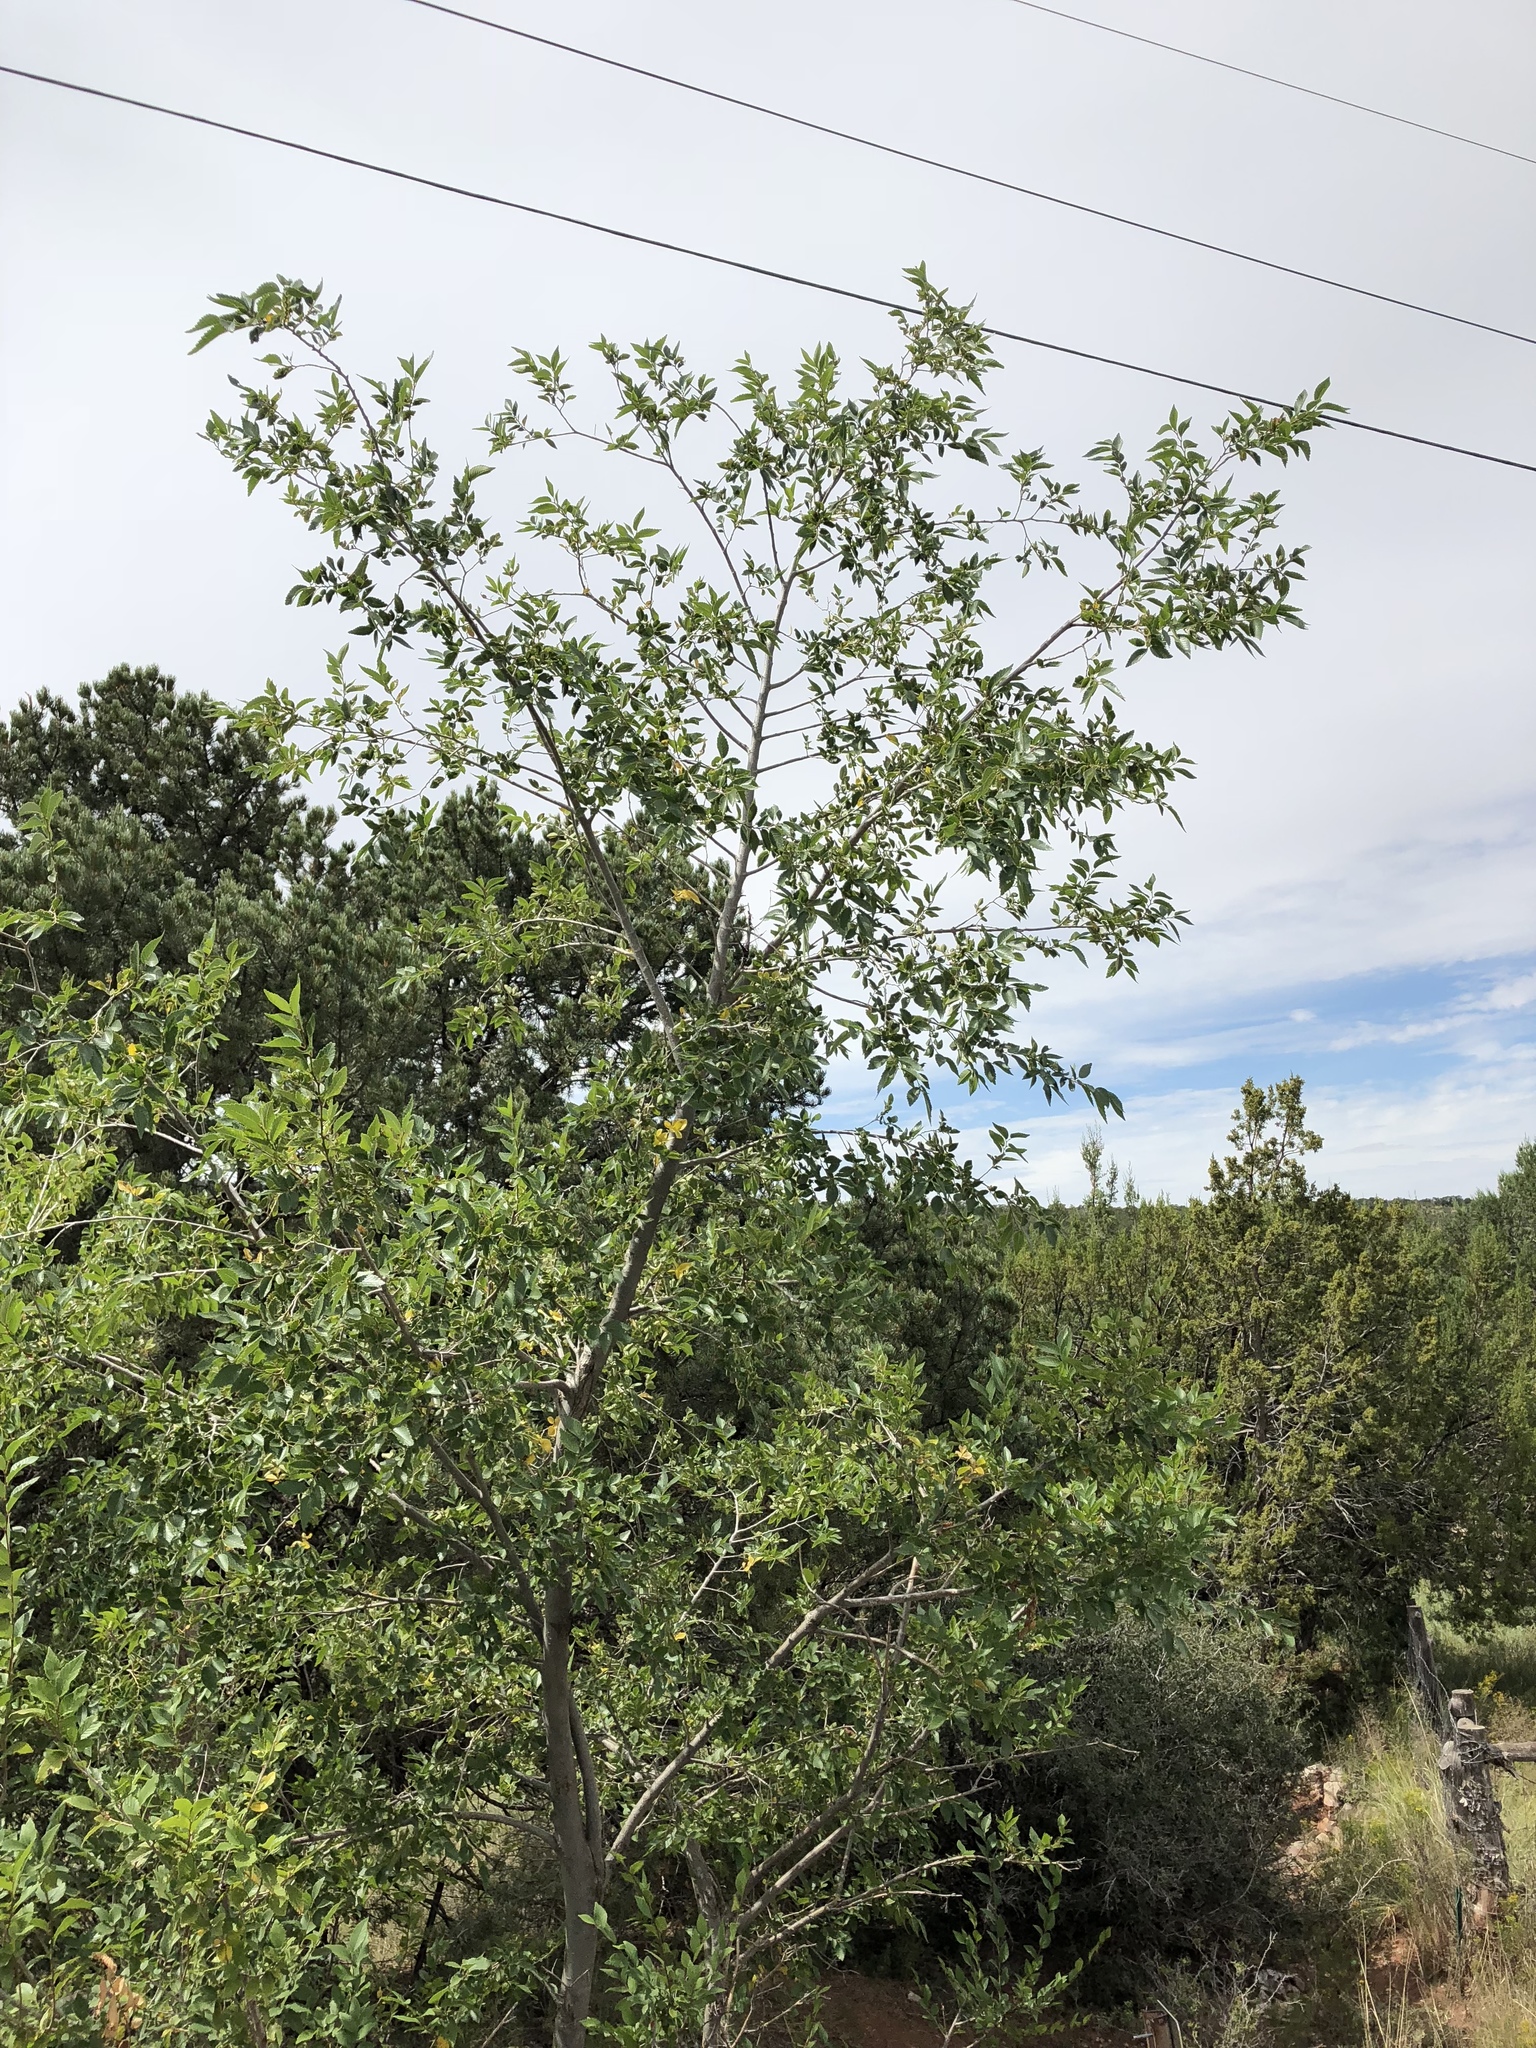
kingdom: Plantae
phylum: Tracheophyta
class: Magnoliopsida
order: Rosales
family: Ulmaceae
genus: Ulmus
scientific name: Ulmus pumila
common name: Siberian elm
